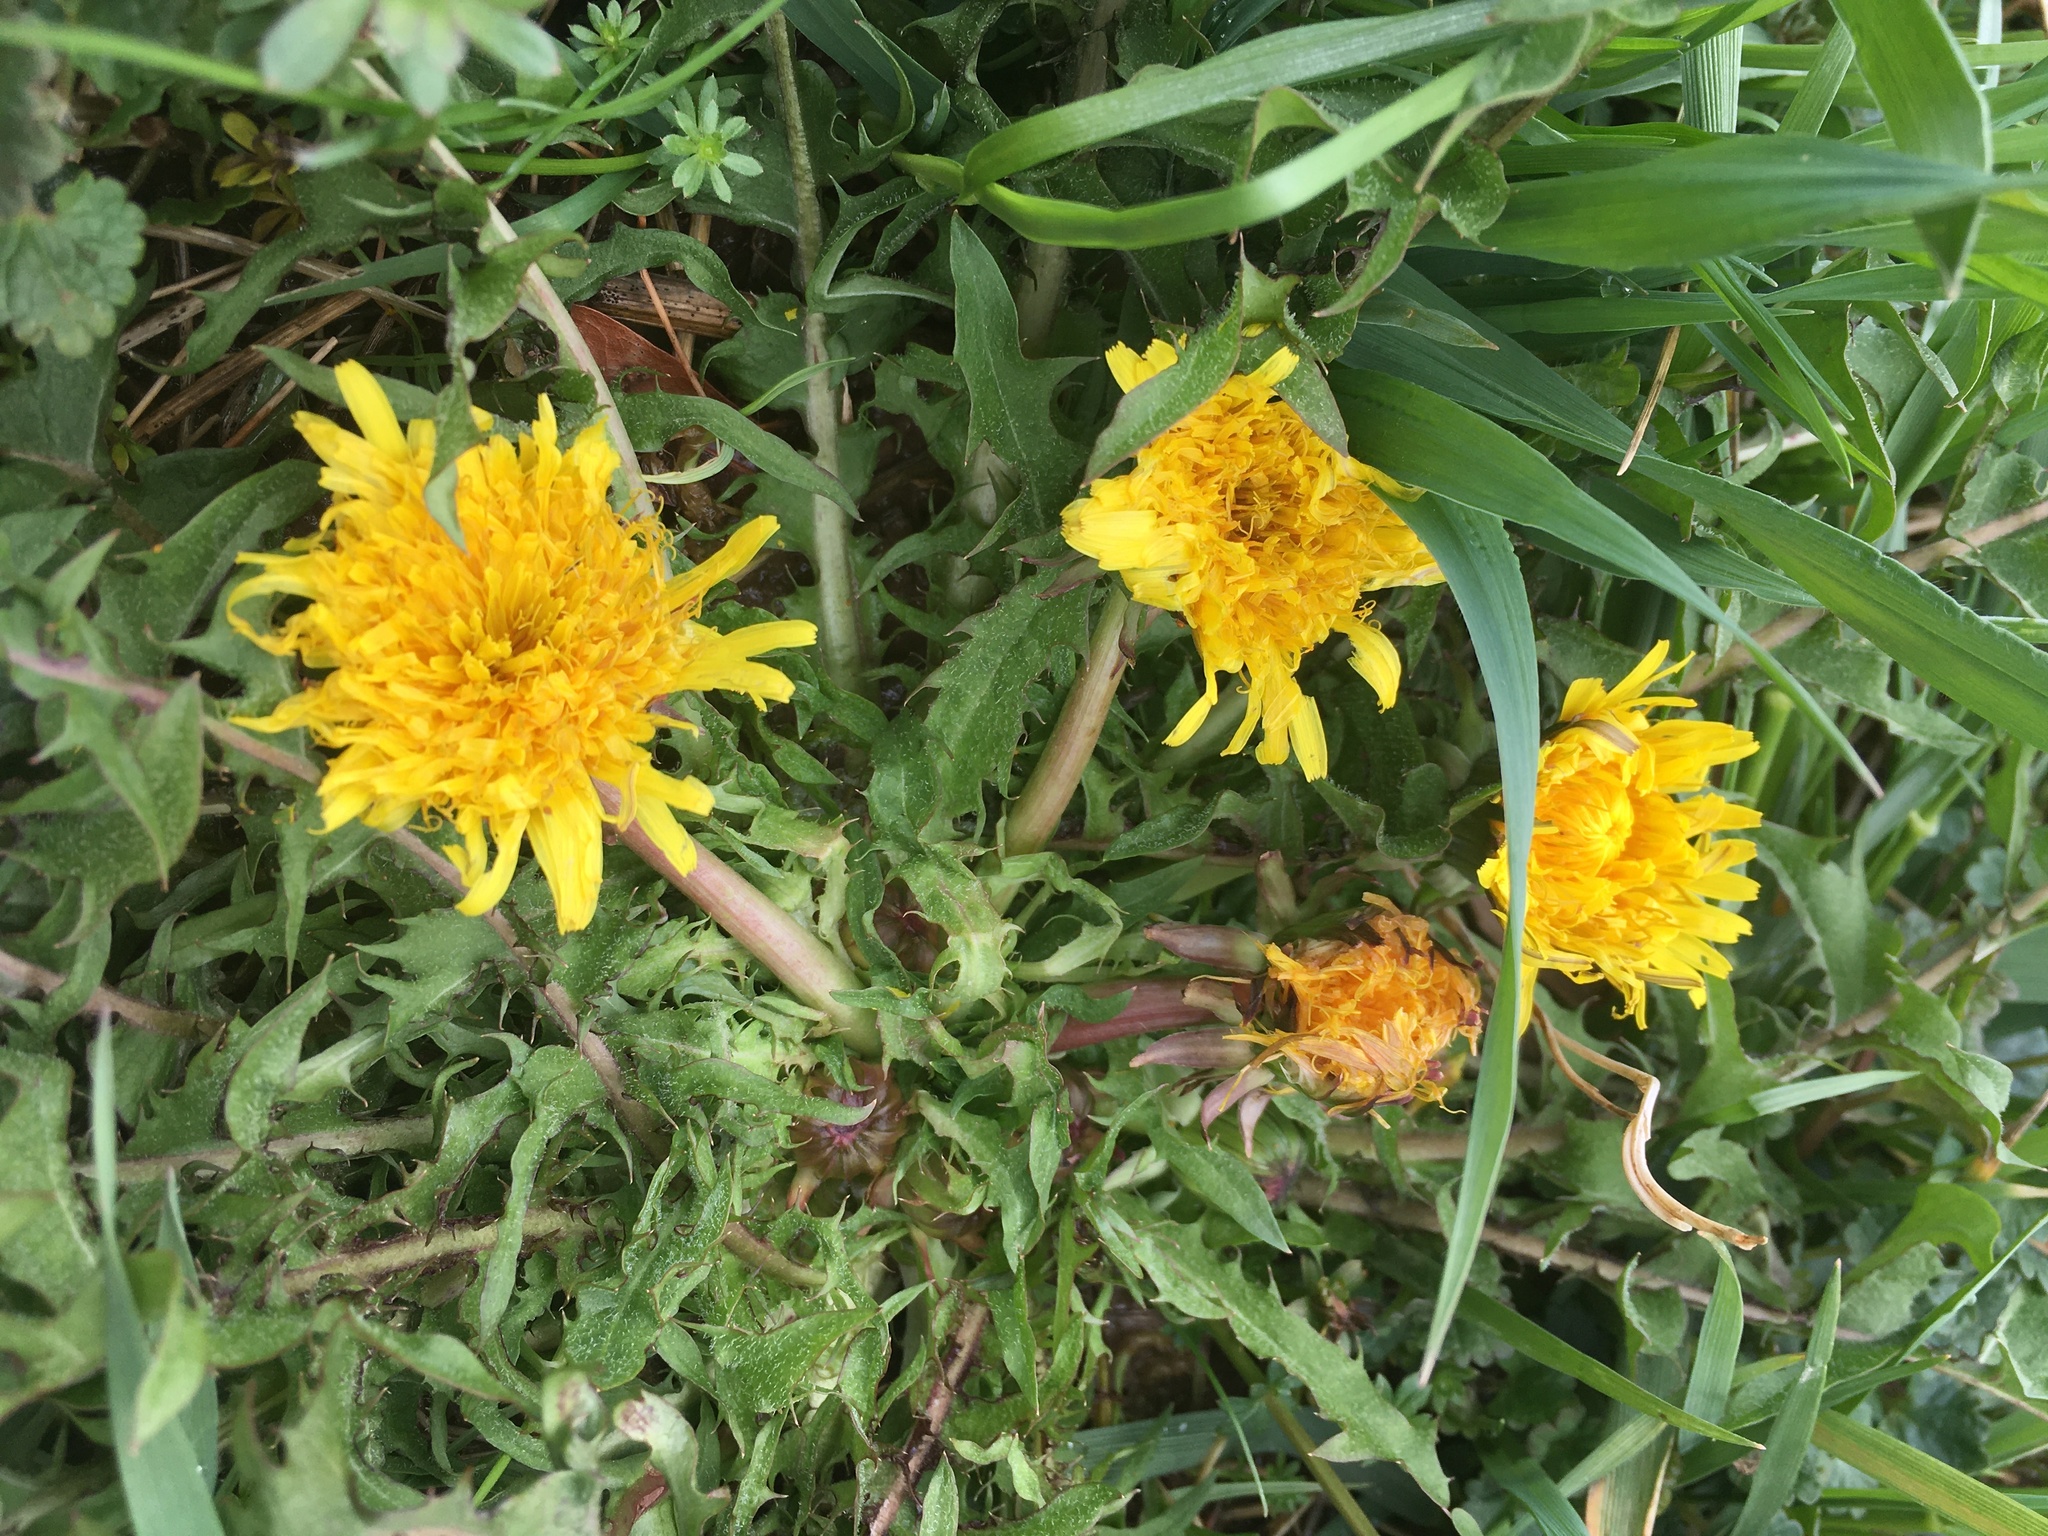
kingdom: Plantae
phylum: Tracheophyta
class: Magnoliopsida
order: Asterales
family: Asteraceae
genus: Taraxacum
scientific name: Taraxacum
